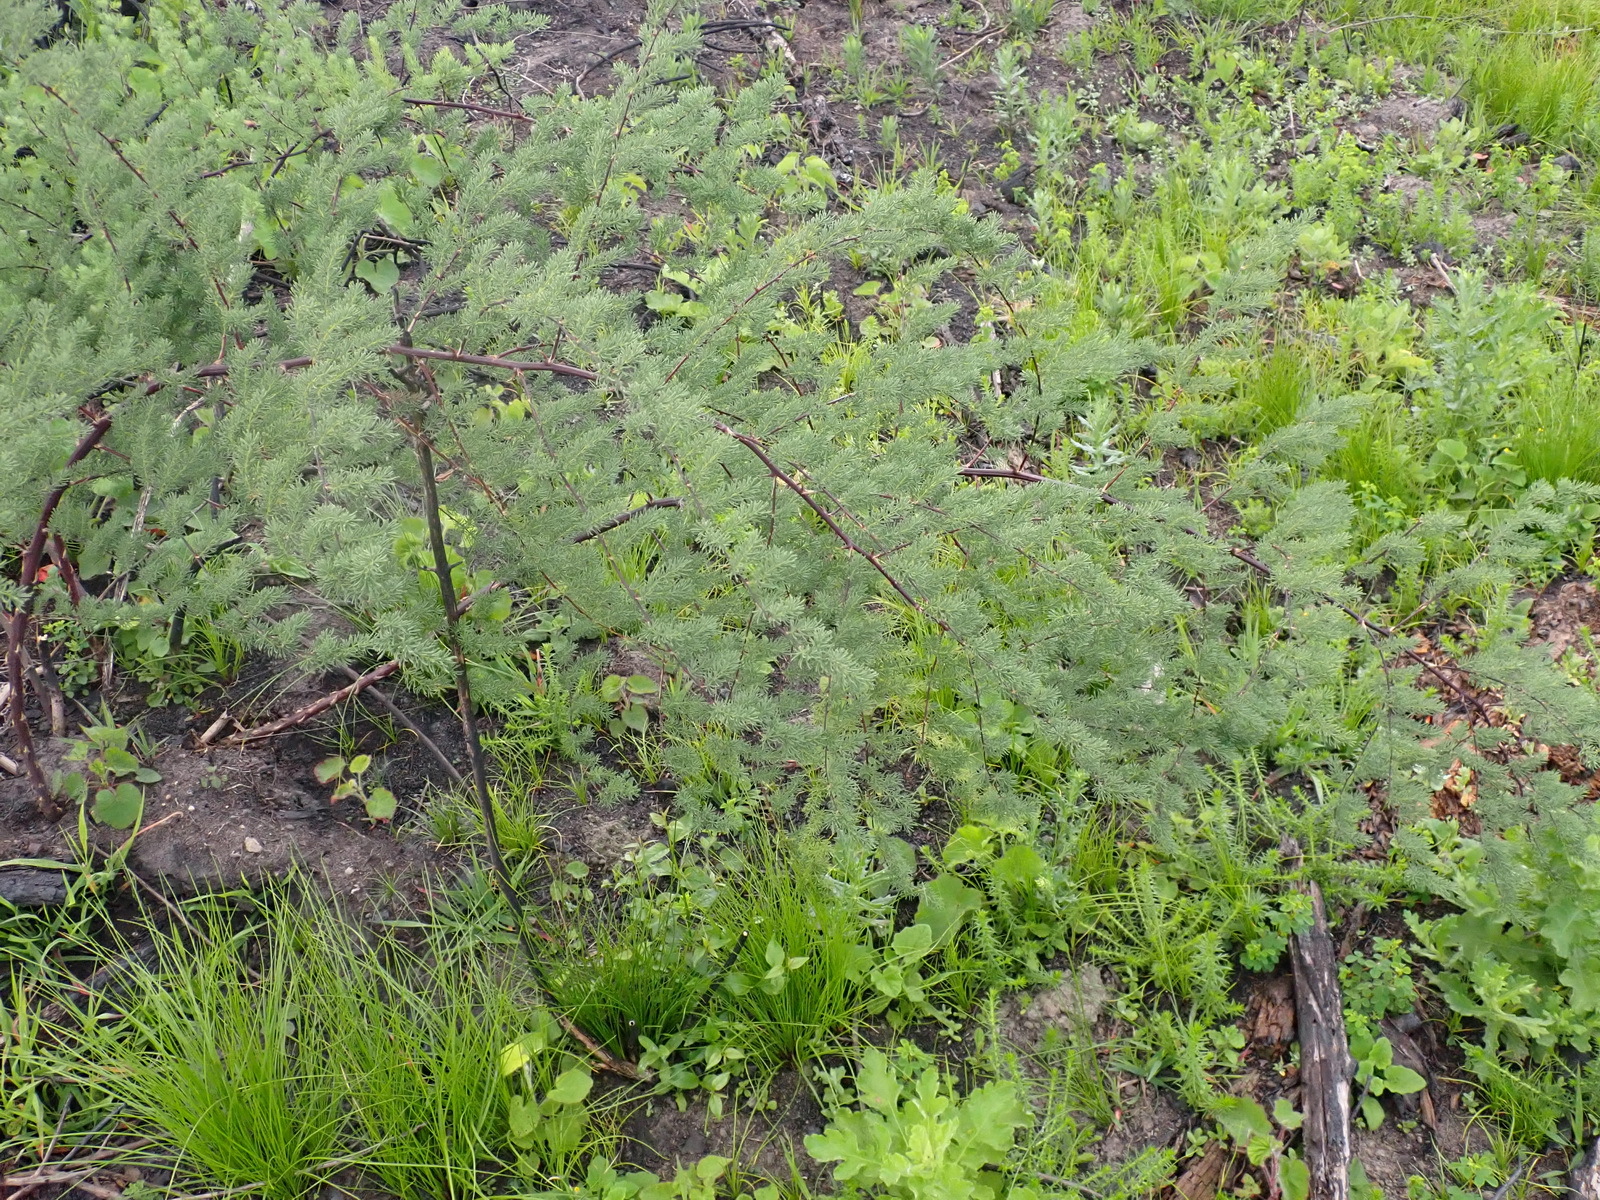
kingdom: Plantae
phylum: Tracheophyta
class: Liliopsida
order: Asparagales
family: Asparagaceae
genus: Asparagus
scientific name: Asparagus rubicundus
